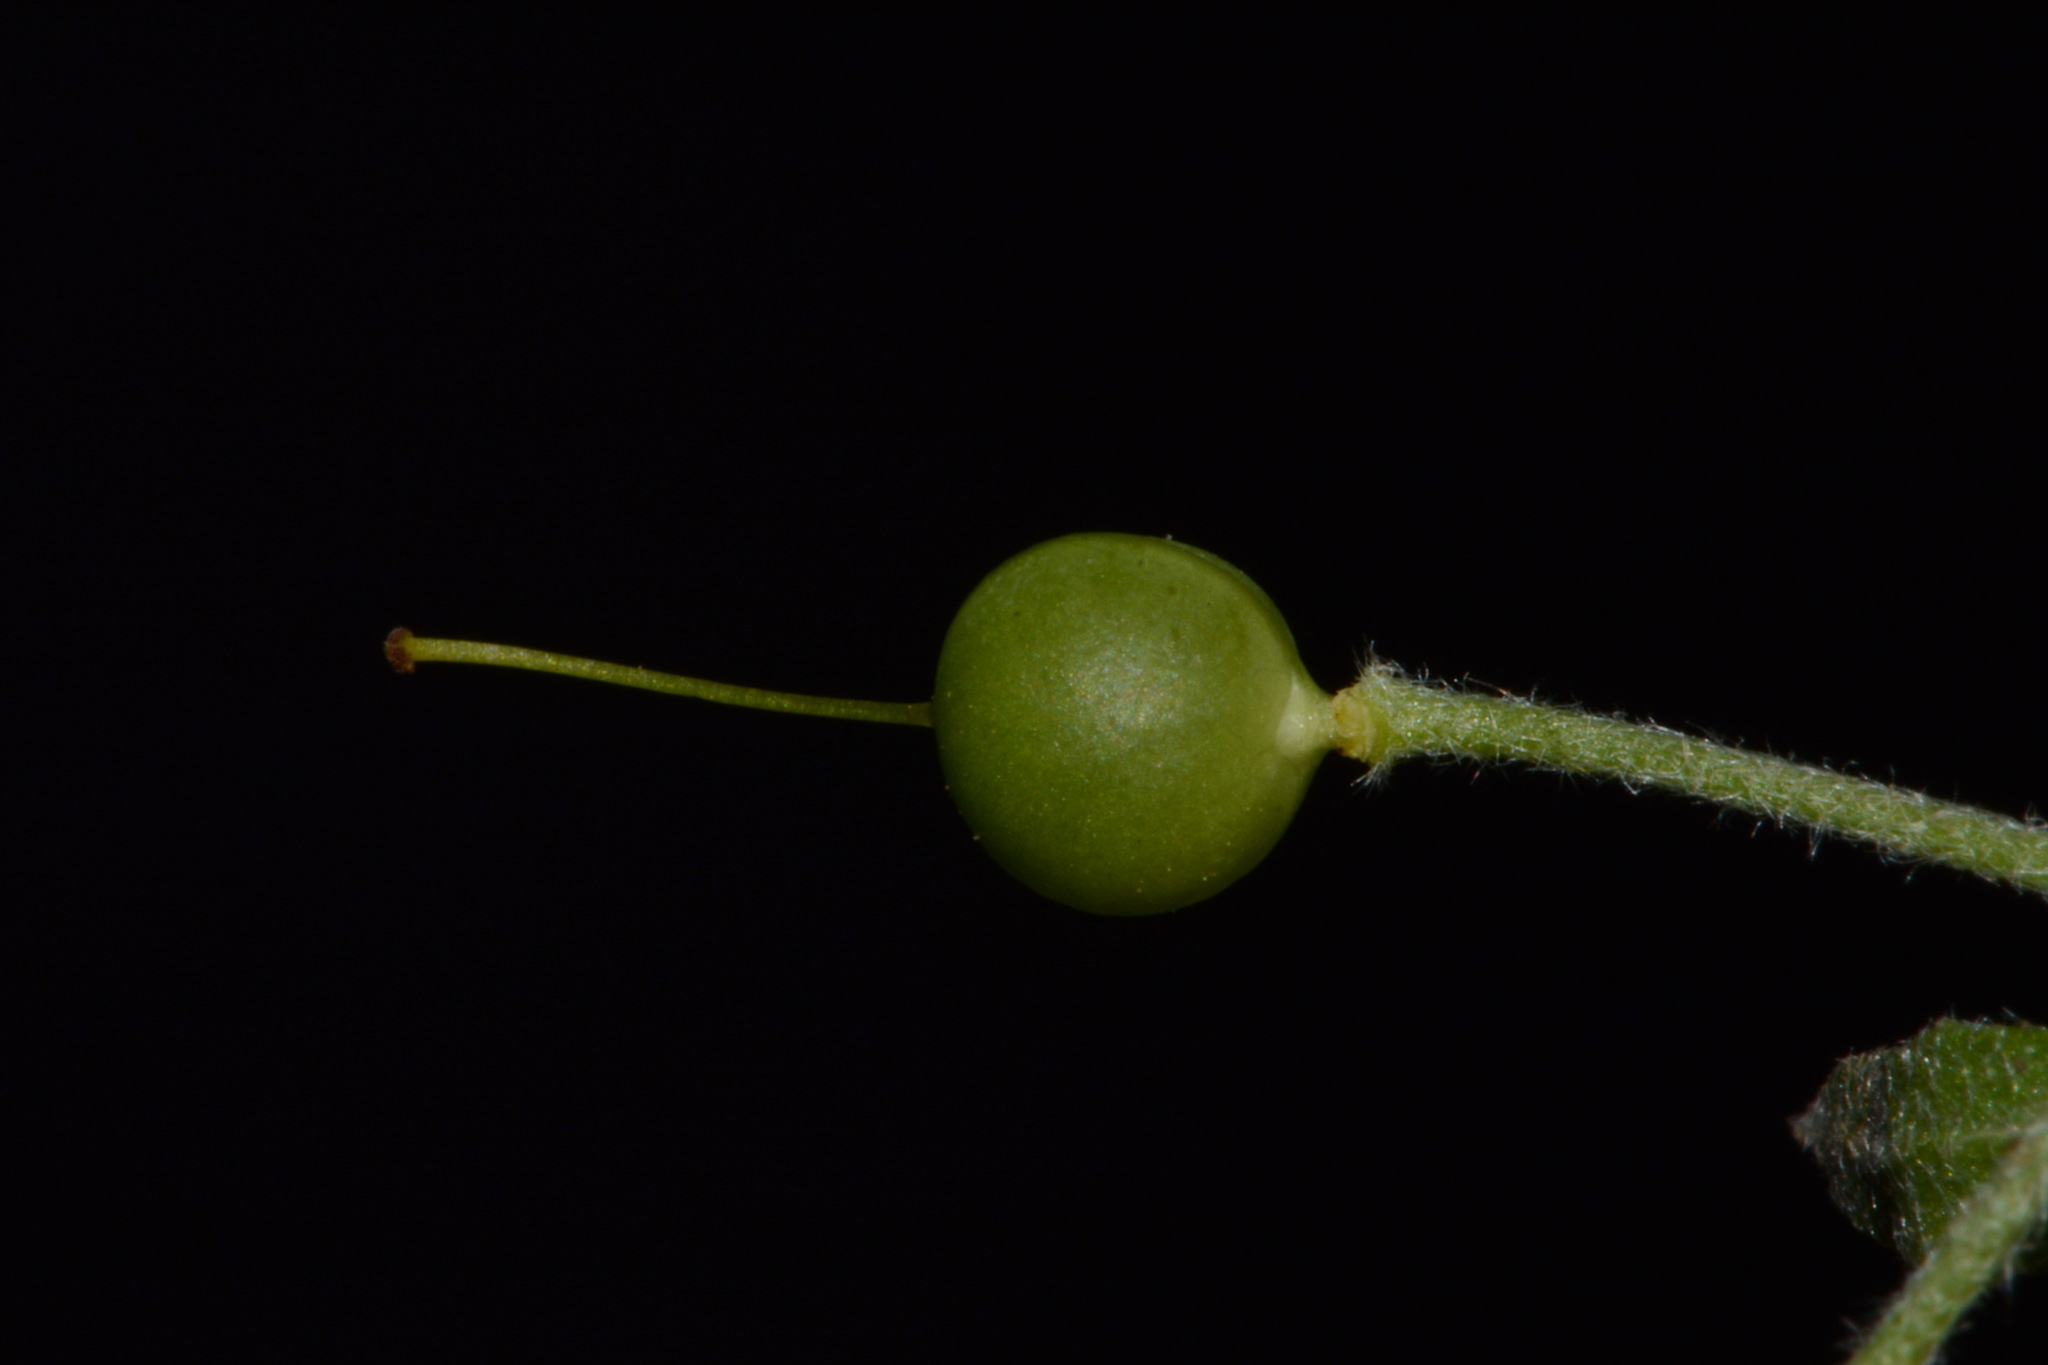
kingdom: Plantae
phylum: Tracheophyta
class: Magnoliopsida
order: Brassicales
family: Brassicaceae
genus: Physaria
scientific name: Physaria densiflora
